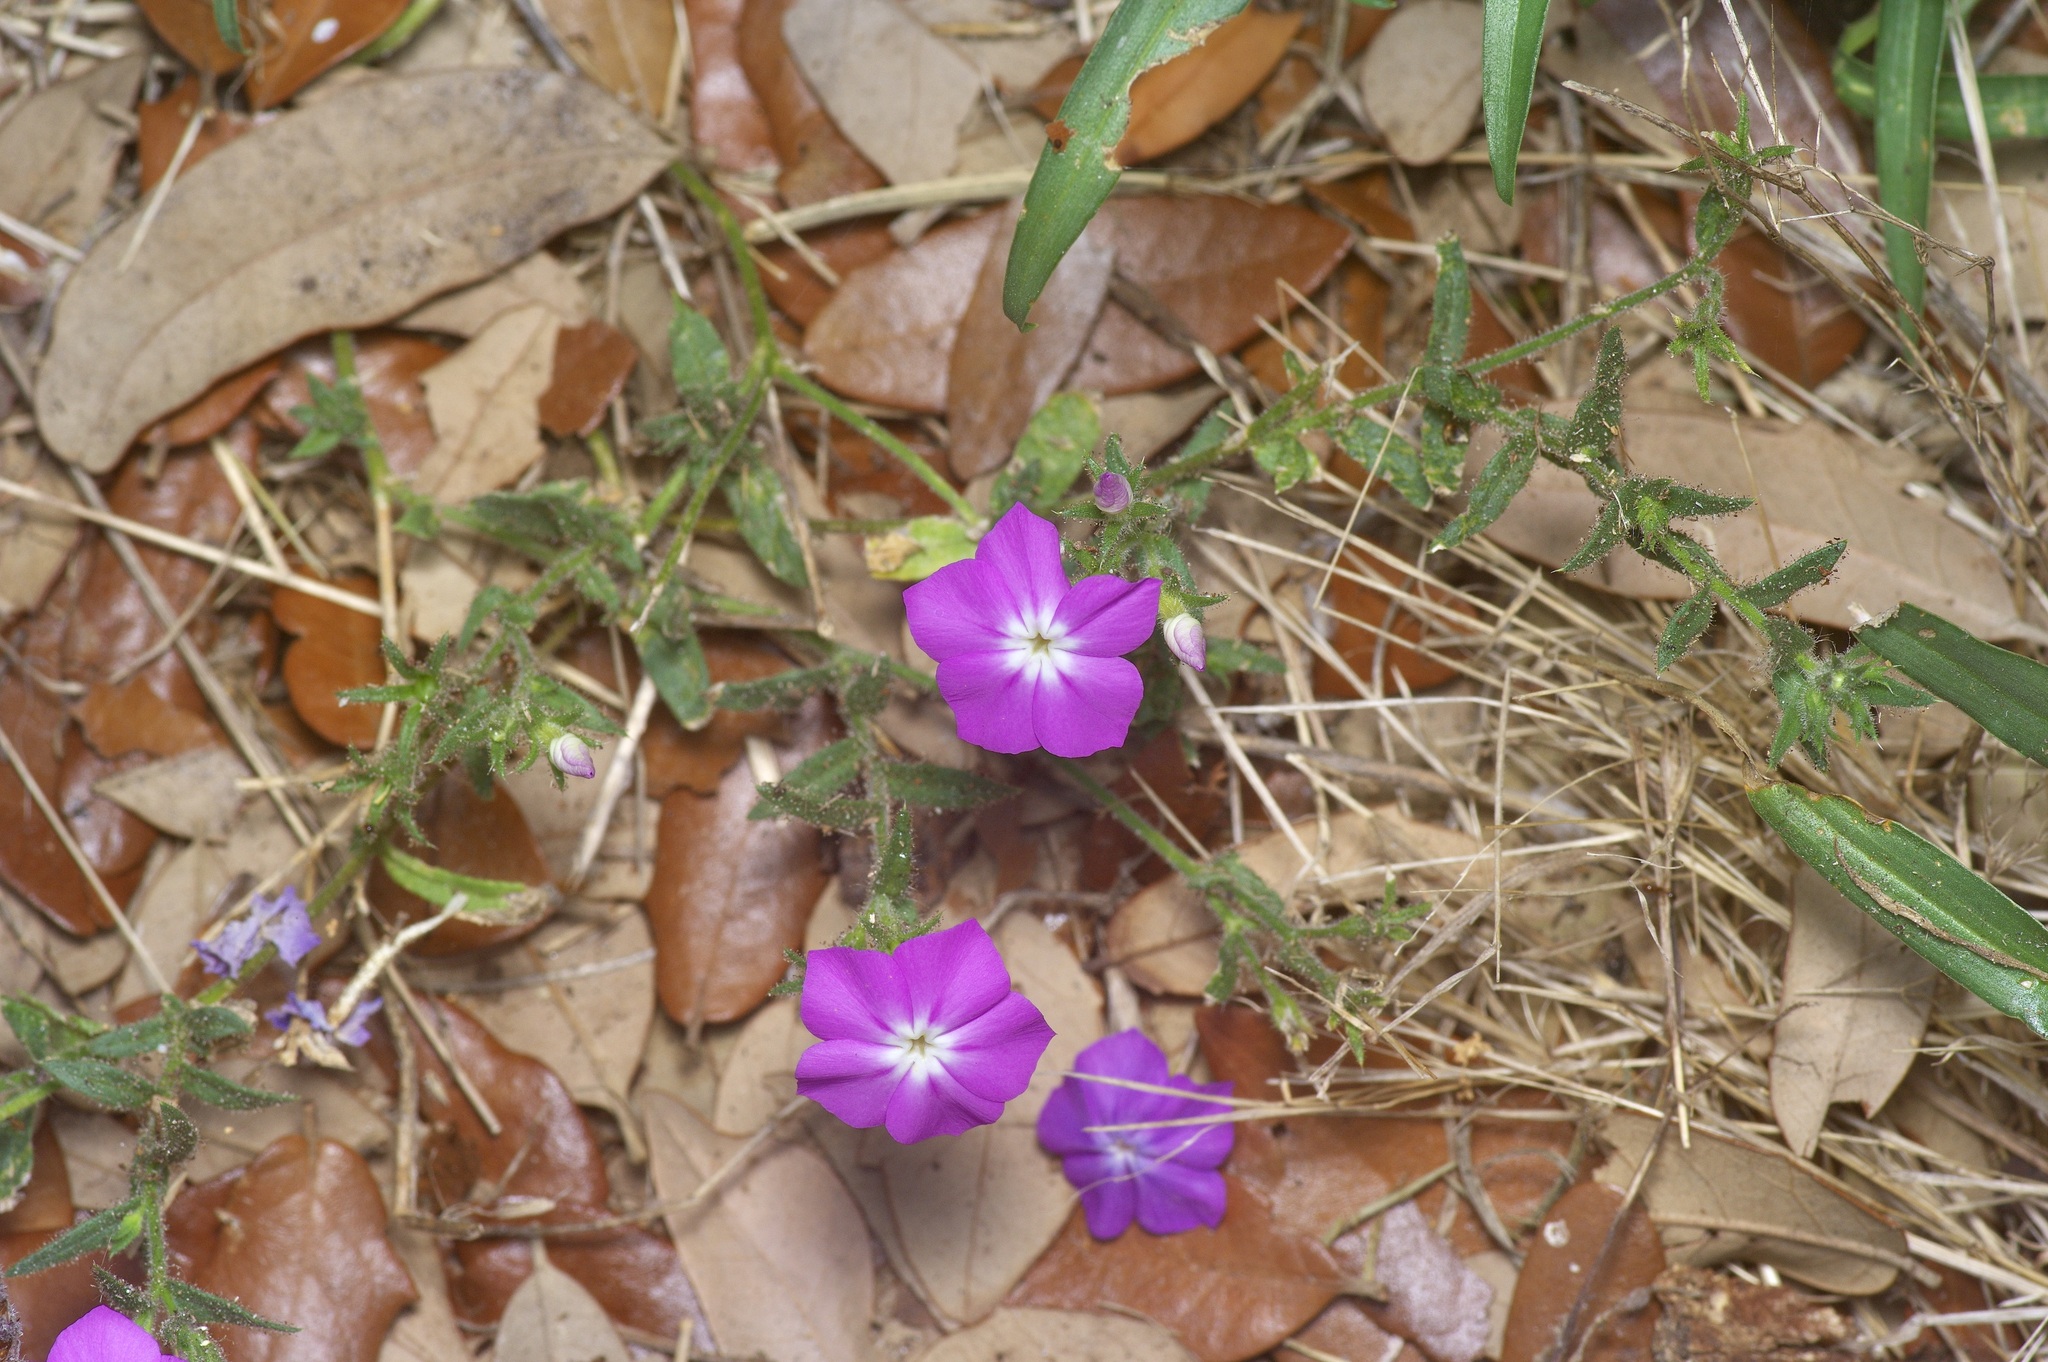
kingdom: Plantae
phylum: Tracheophyta
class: Magnoliopsida
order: Ericales
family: Polemoniaceae
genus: Phlox
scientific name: Phlox glabriflora
